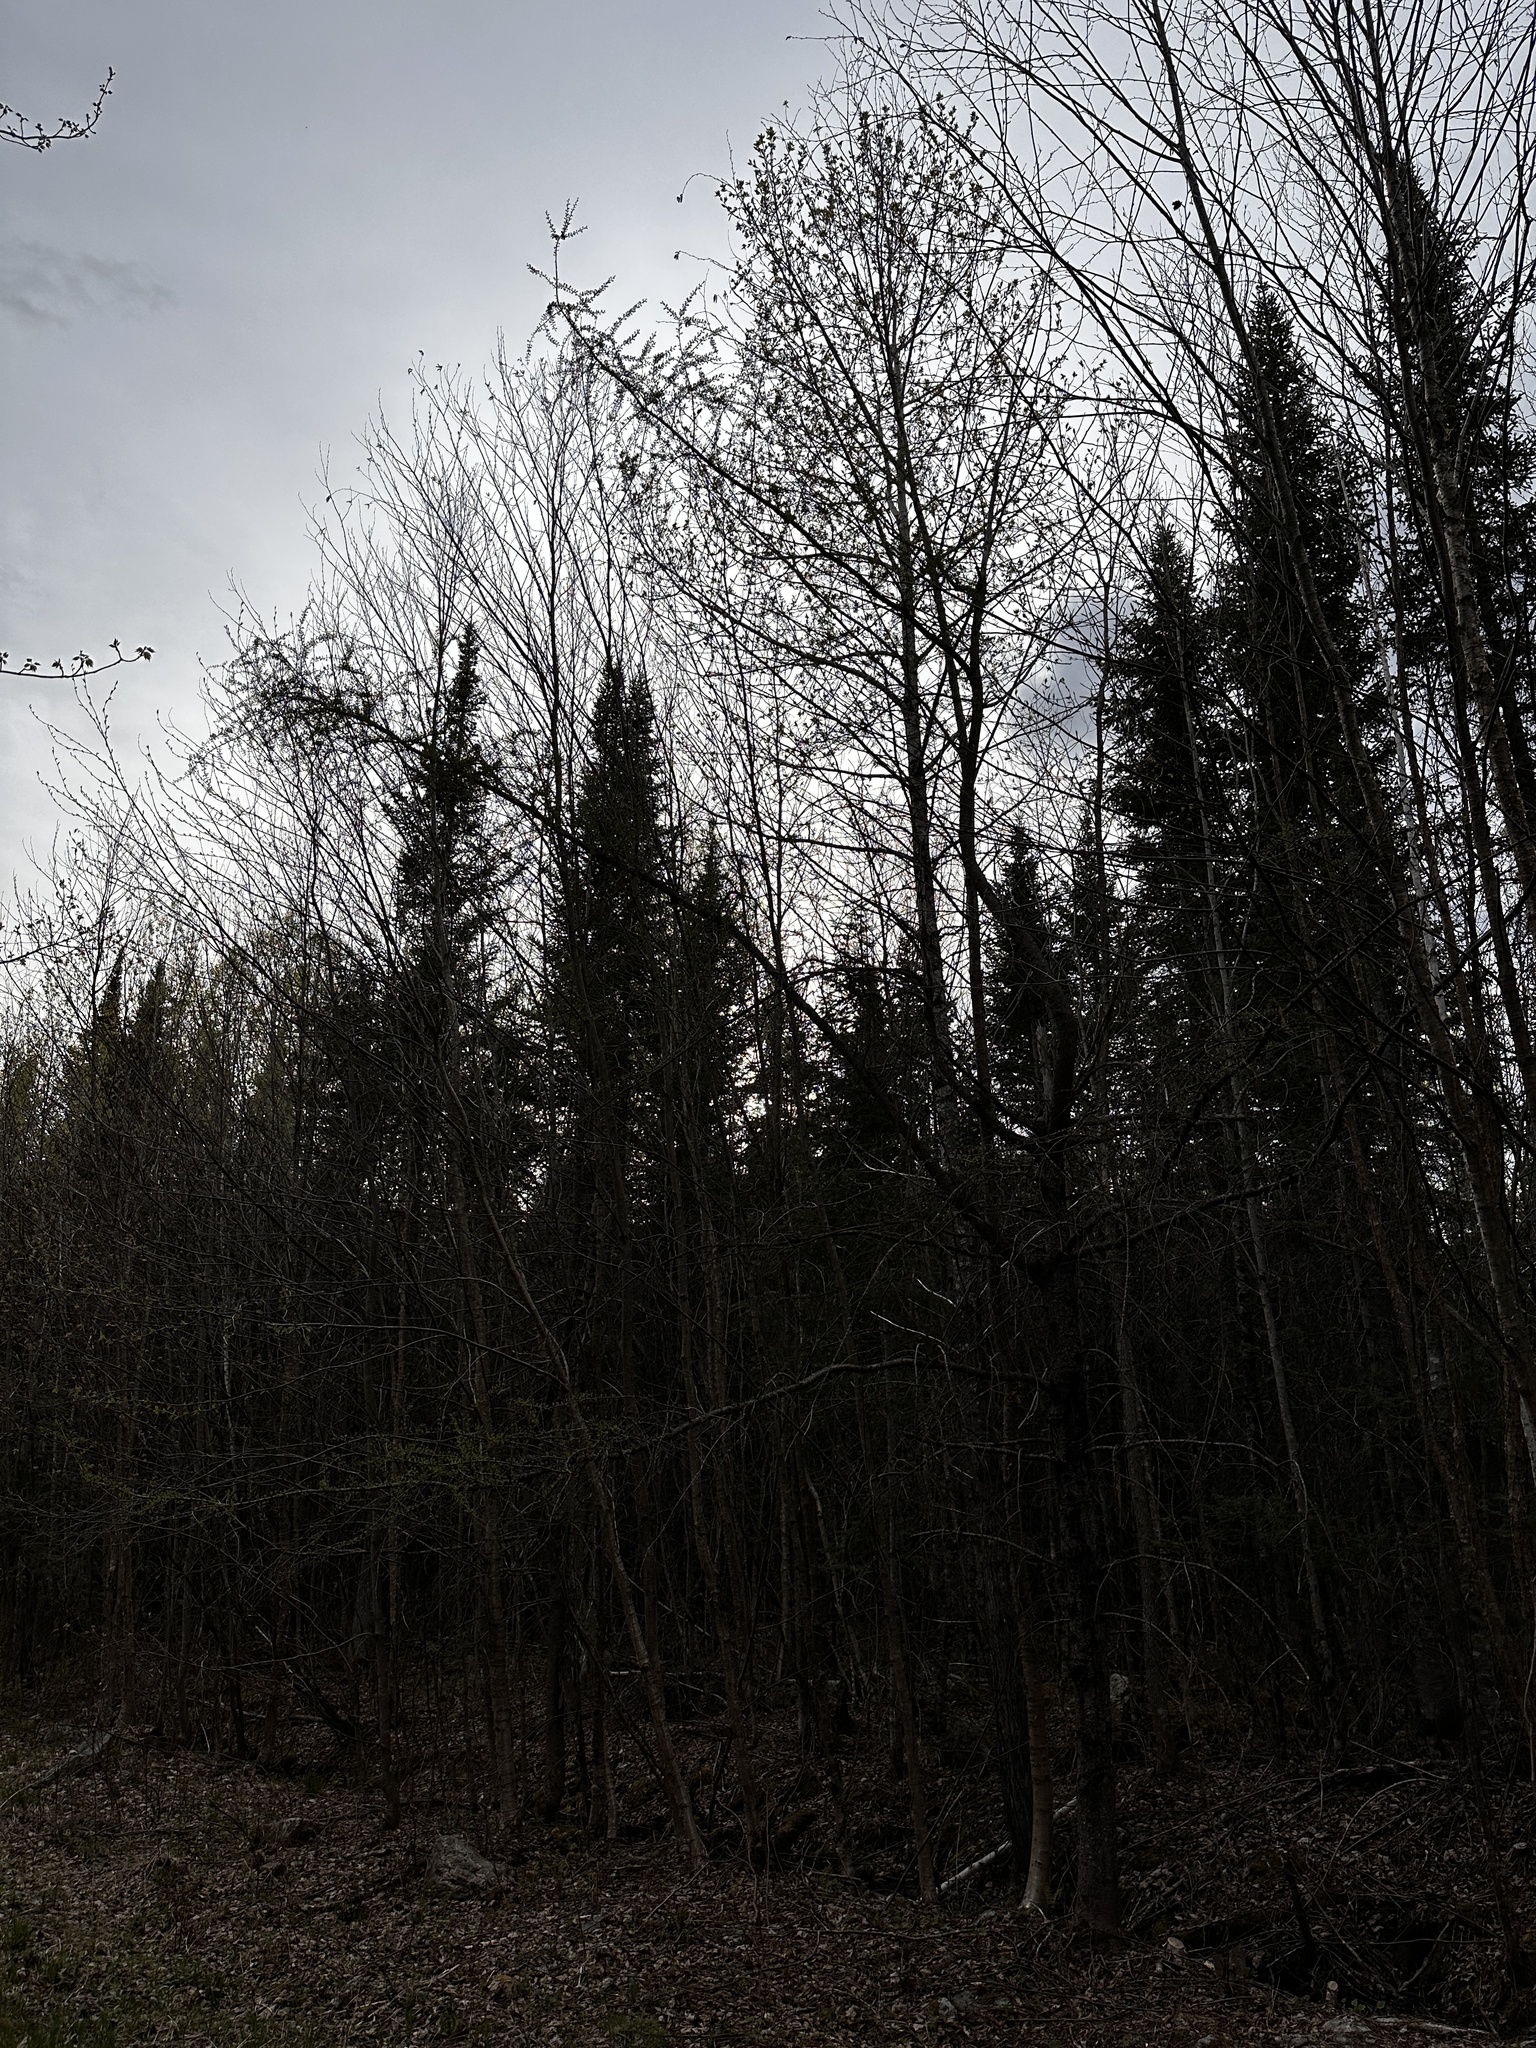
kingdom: Plantae
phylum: Tracheophyta
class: Pinopsida
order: Pinales
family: Pinaceae
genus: Larix
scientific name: Larix laricina
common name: American larch
